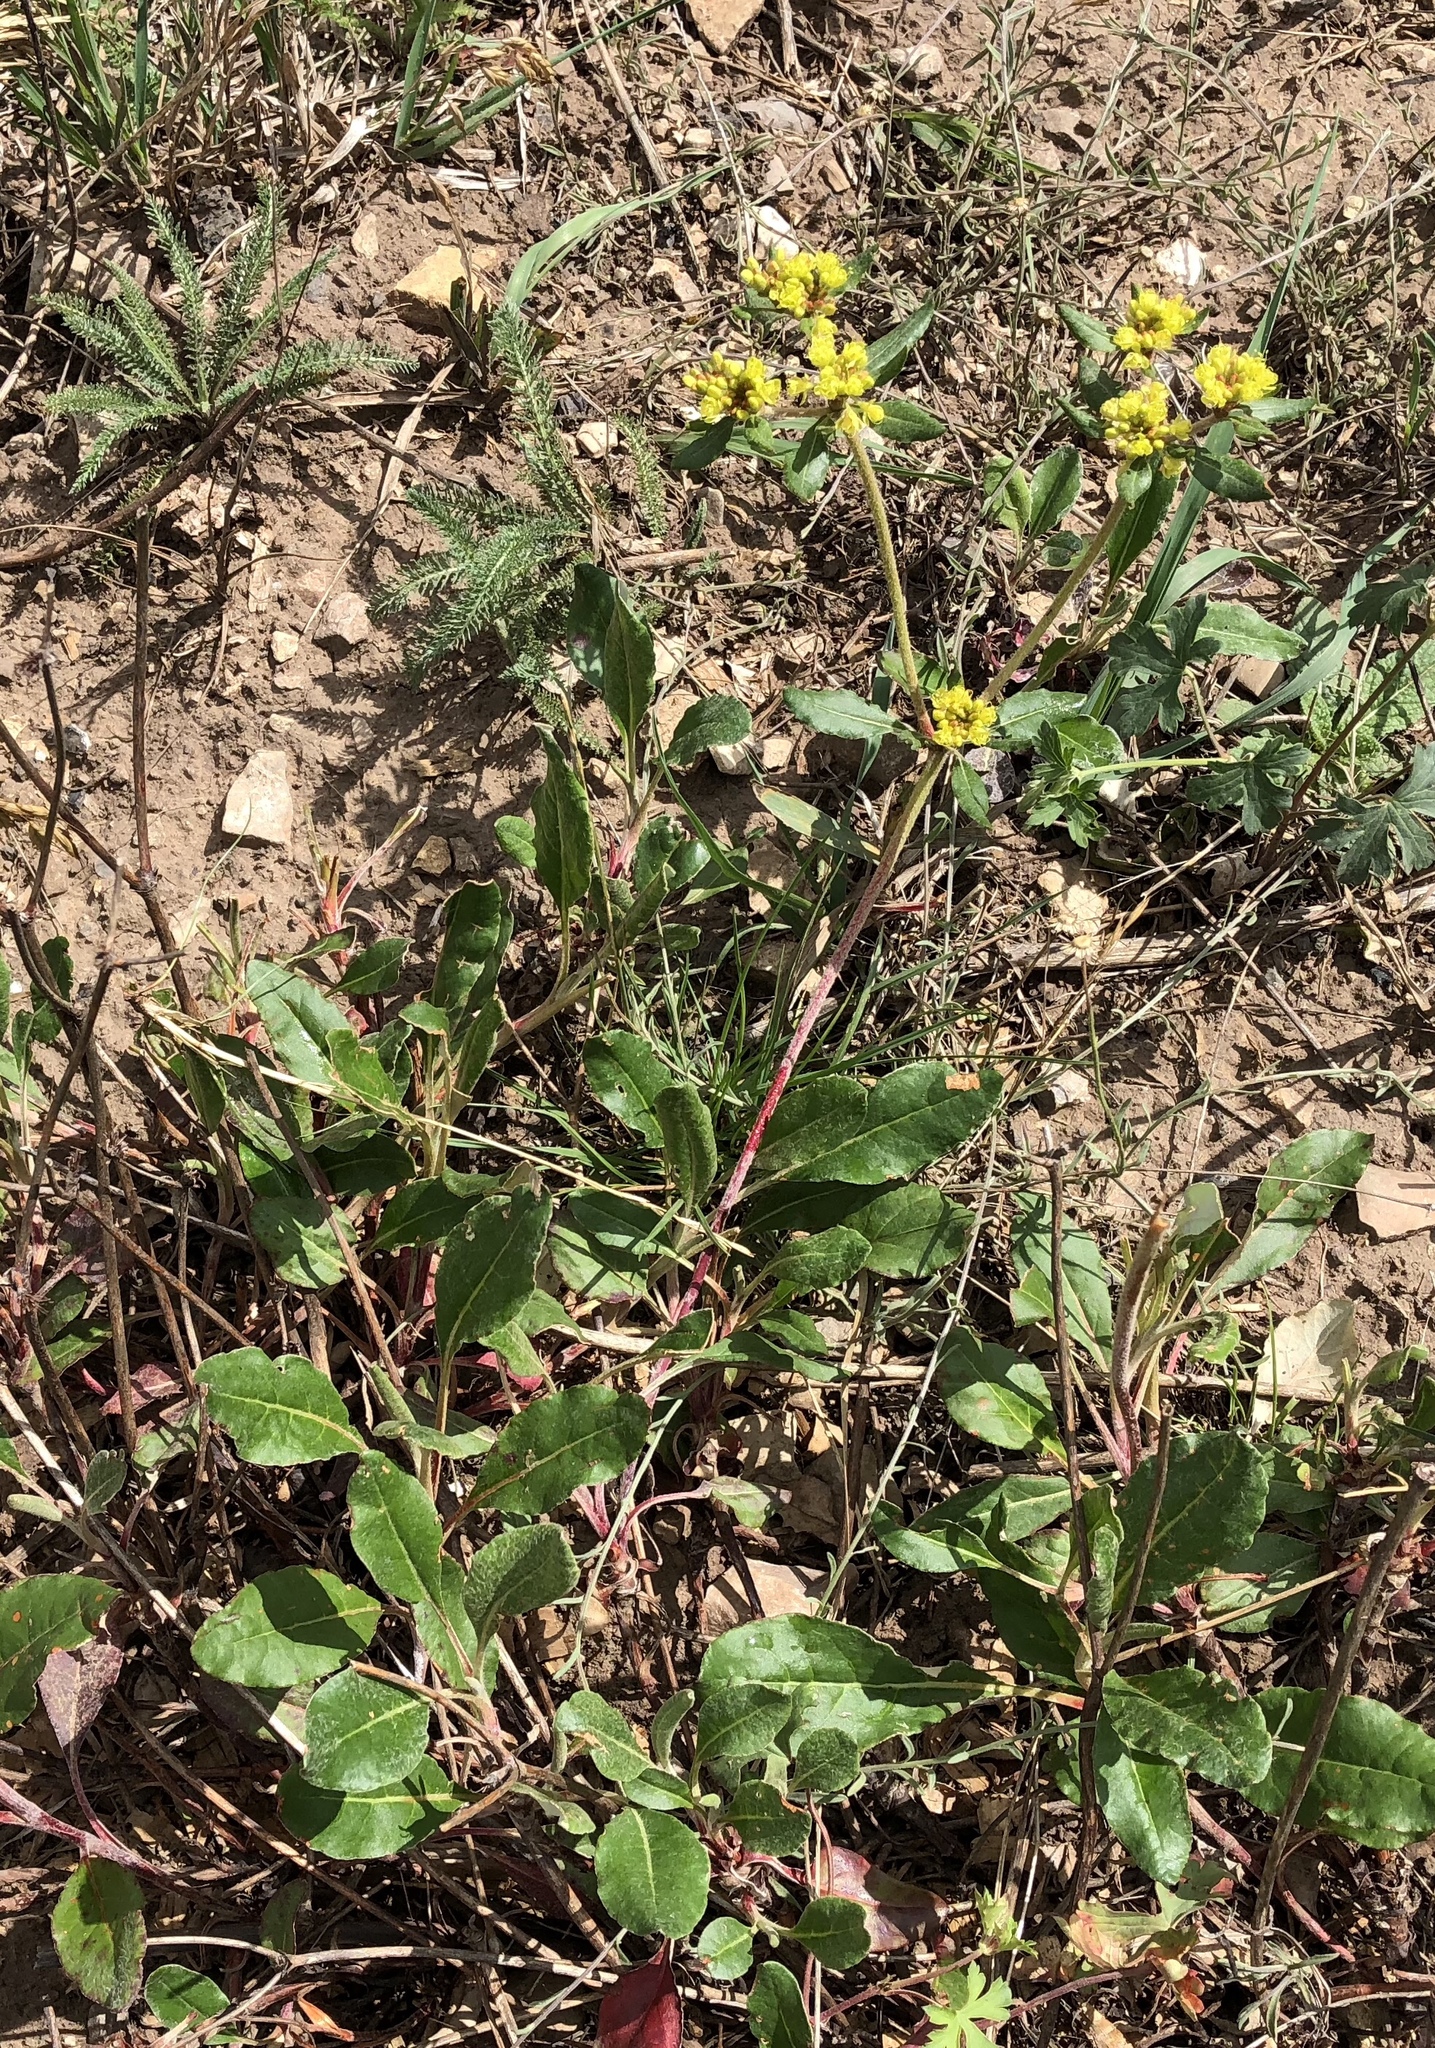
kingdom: Plantae
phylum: Tracheophyta
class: Magnoliopsida
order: Caryophyllales
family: Polygonaceae
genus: Eriogonum
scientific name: Eriogonum wootonii
